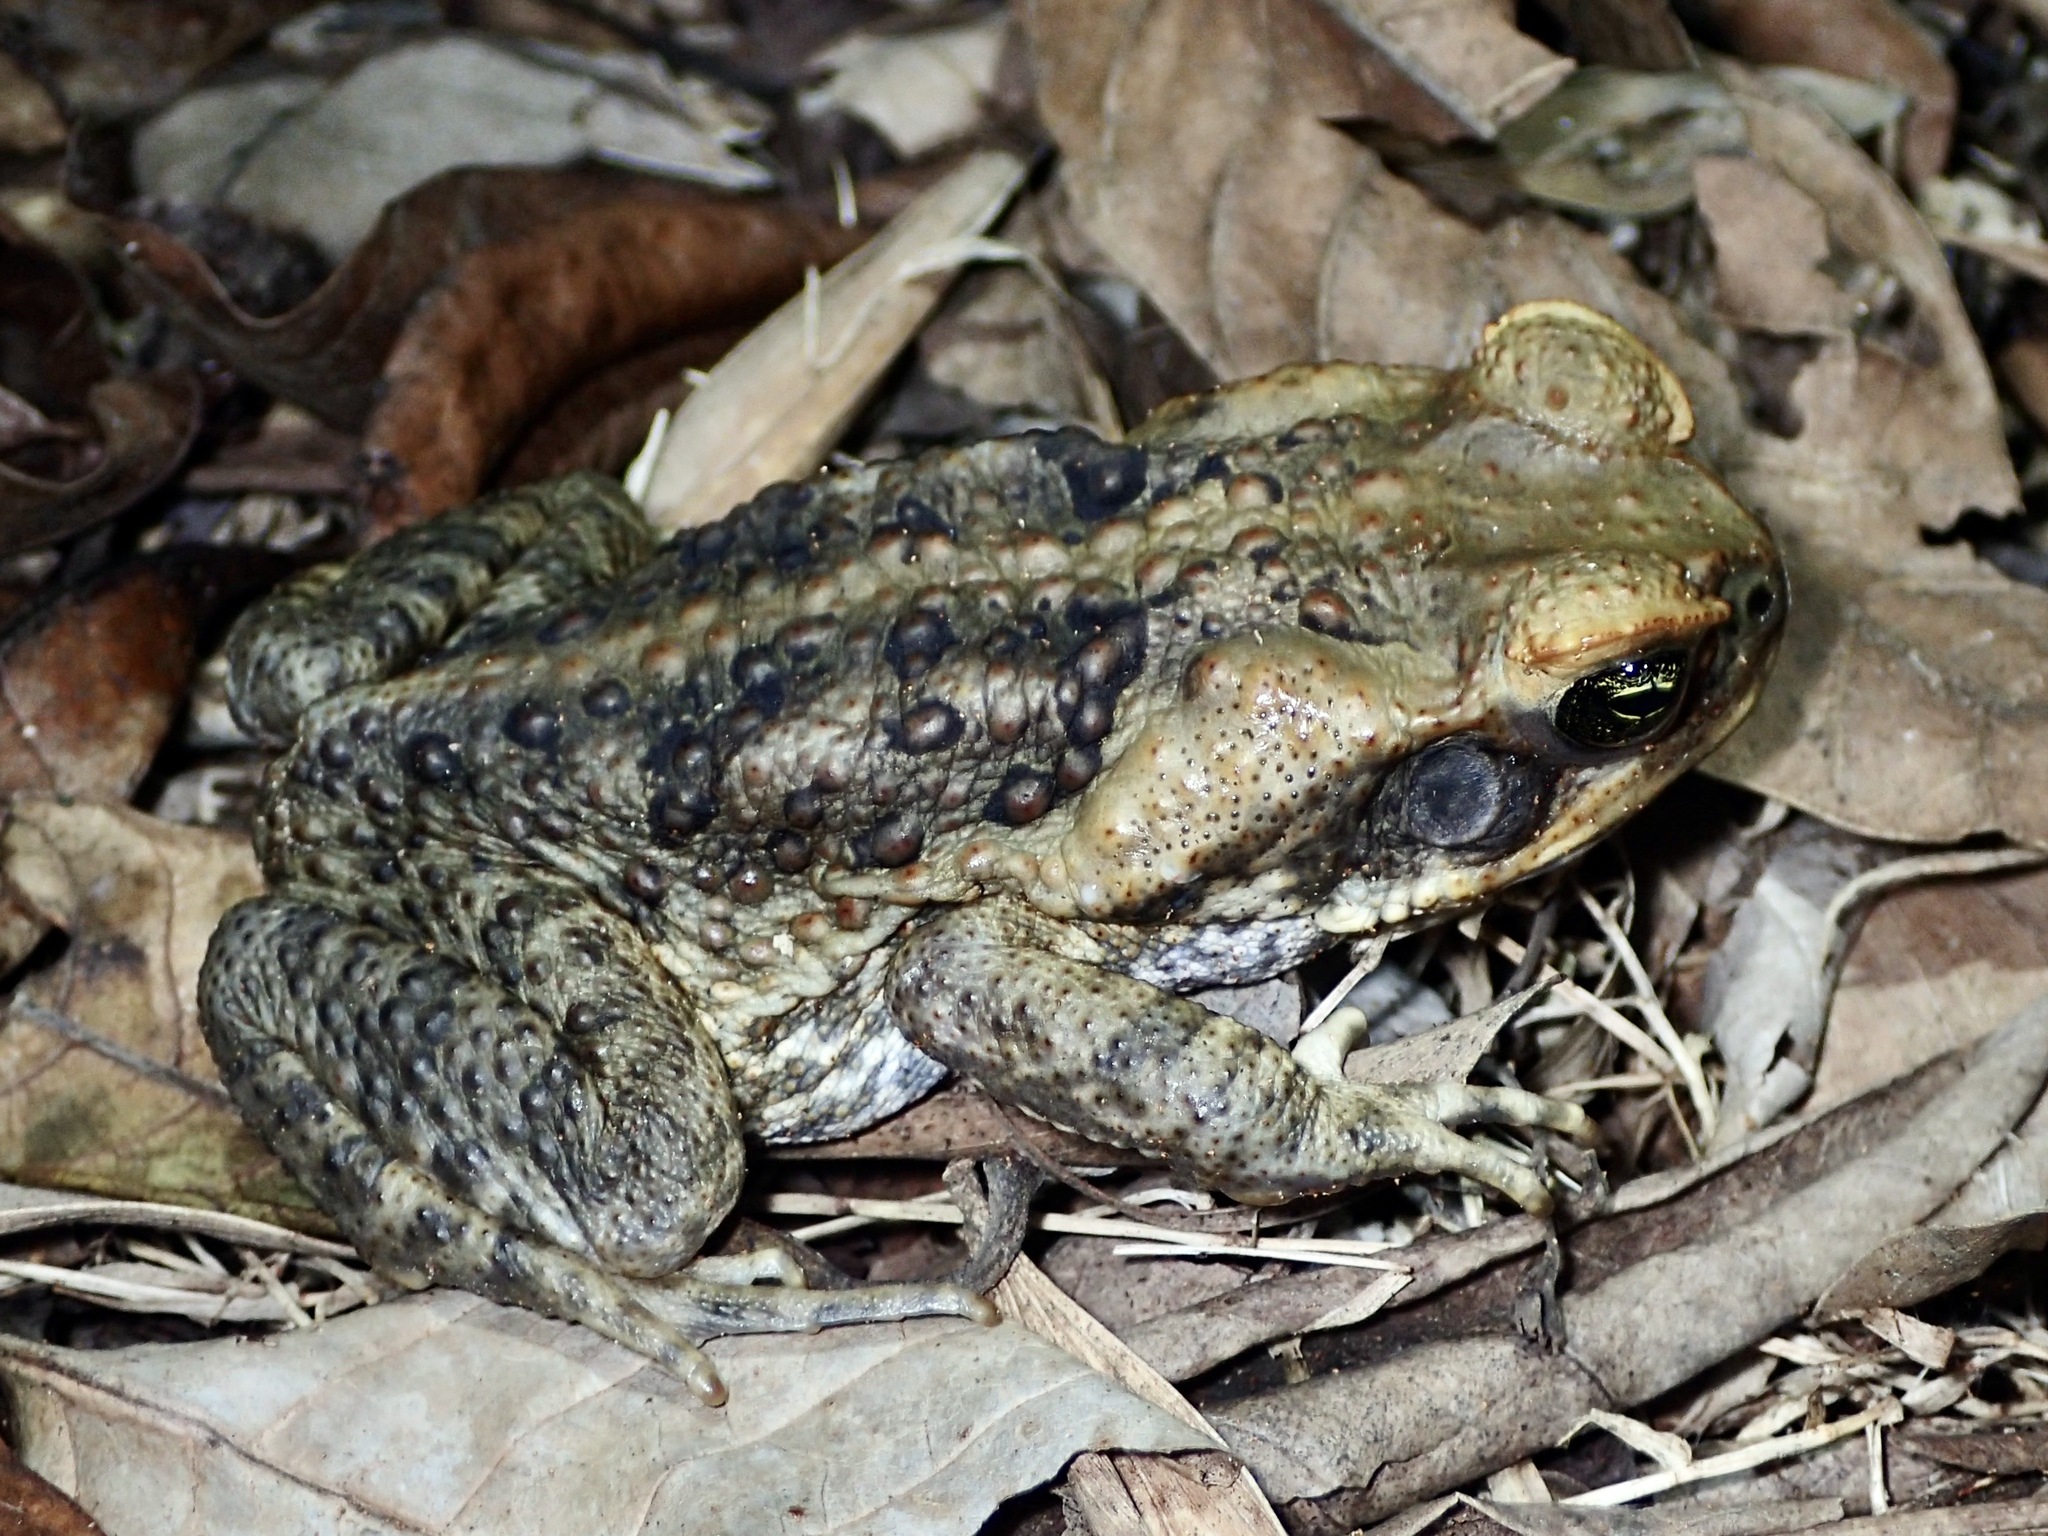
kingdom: Animalia
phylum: Chordata
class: Amphibia
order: Anura
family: Bufonidae
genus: Rhinella
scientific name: Rhinella marina
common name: Cane toad
